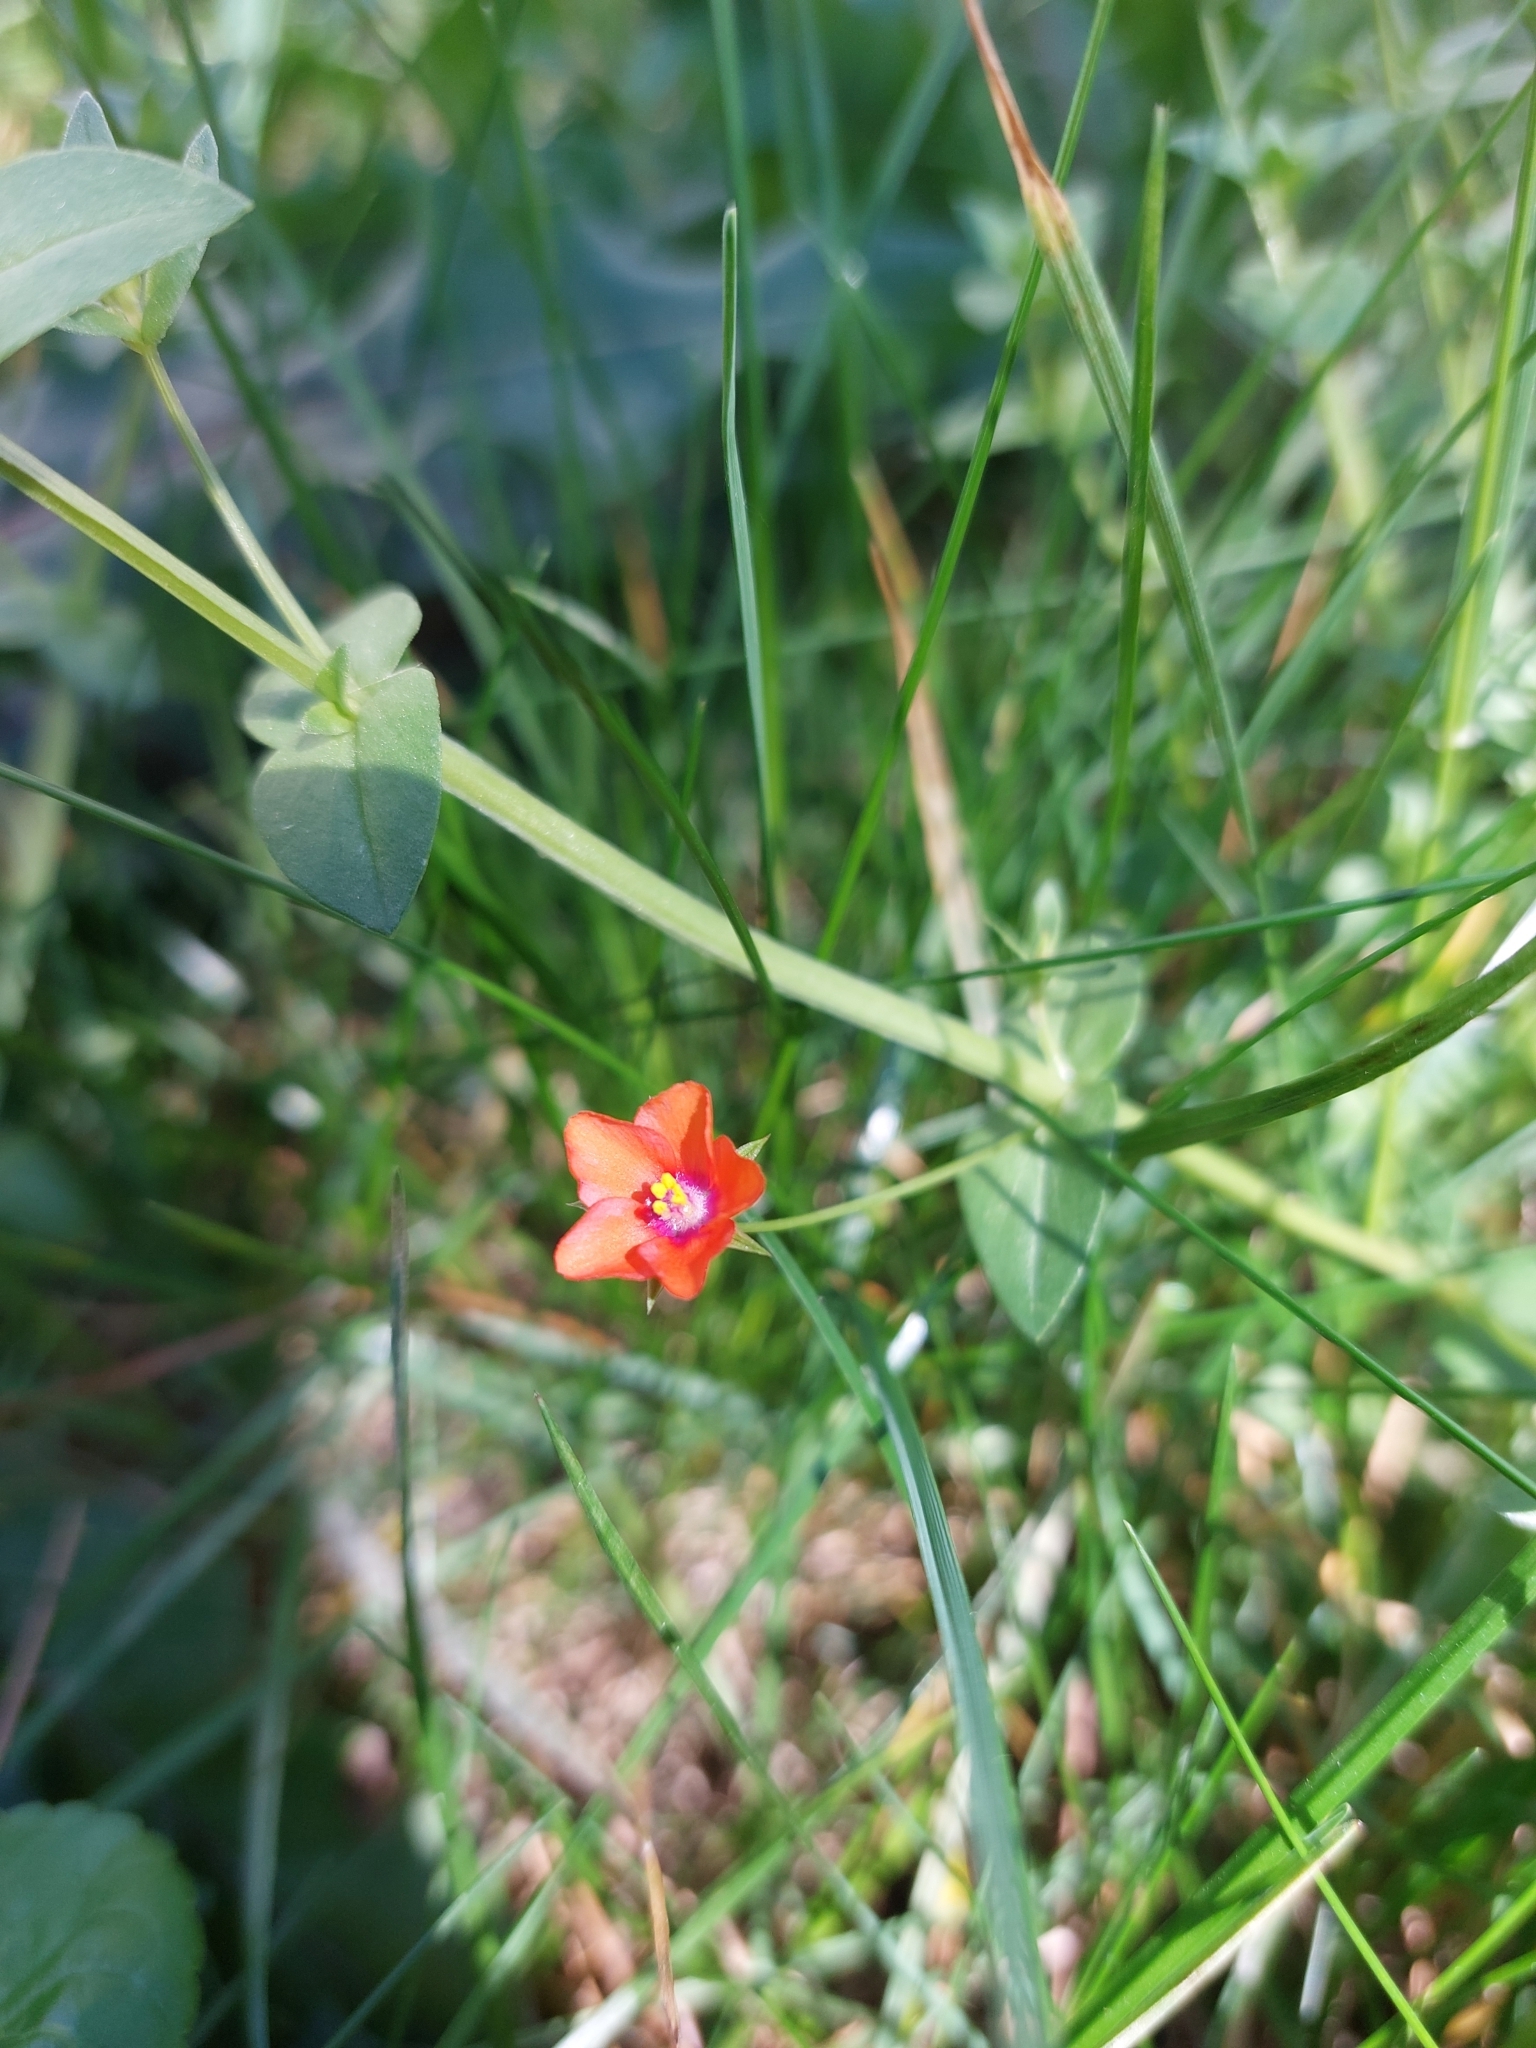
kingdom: Plantae
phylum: Tracheophyta
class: Magnoliopsida
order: Ericales
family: Primulaceae
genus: Lysimachia
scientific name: Lysimachia arvensis
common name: Scarlet pimpernel
